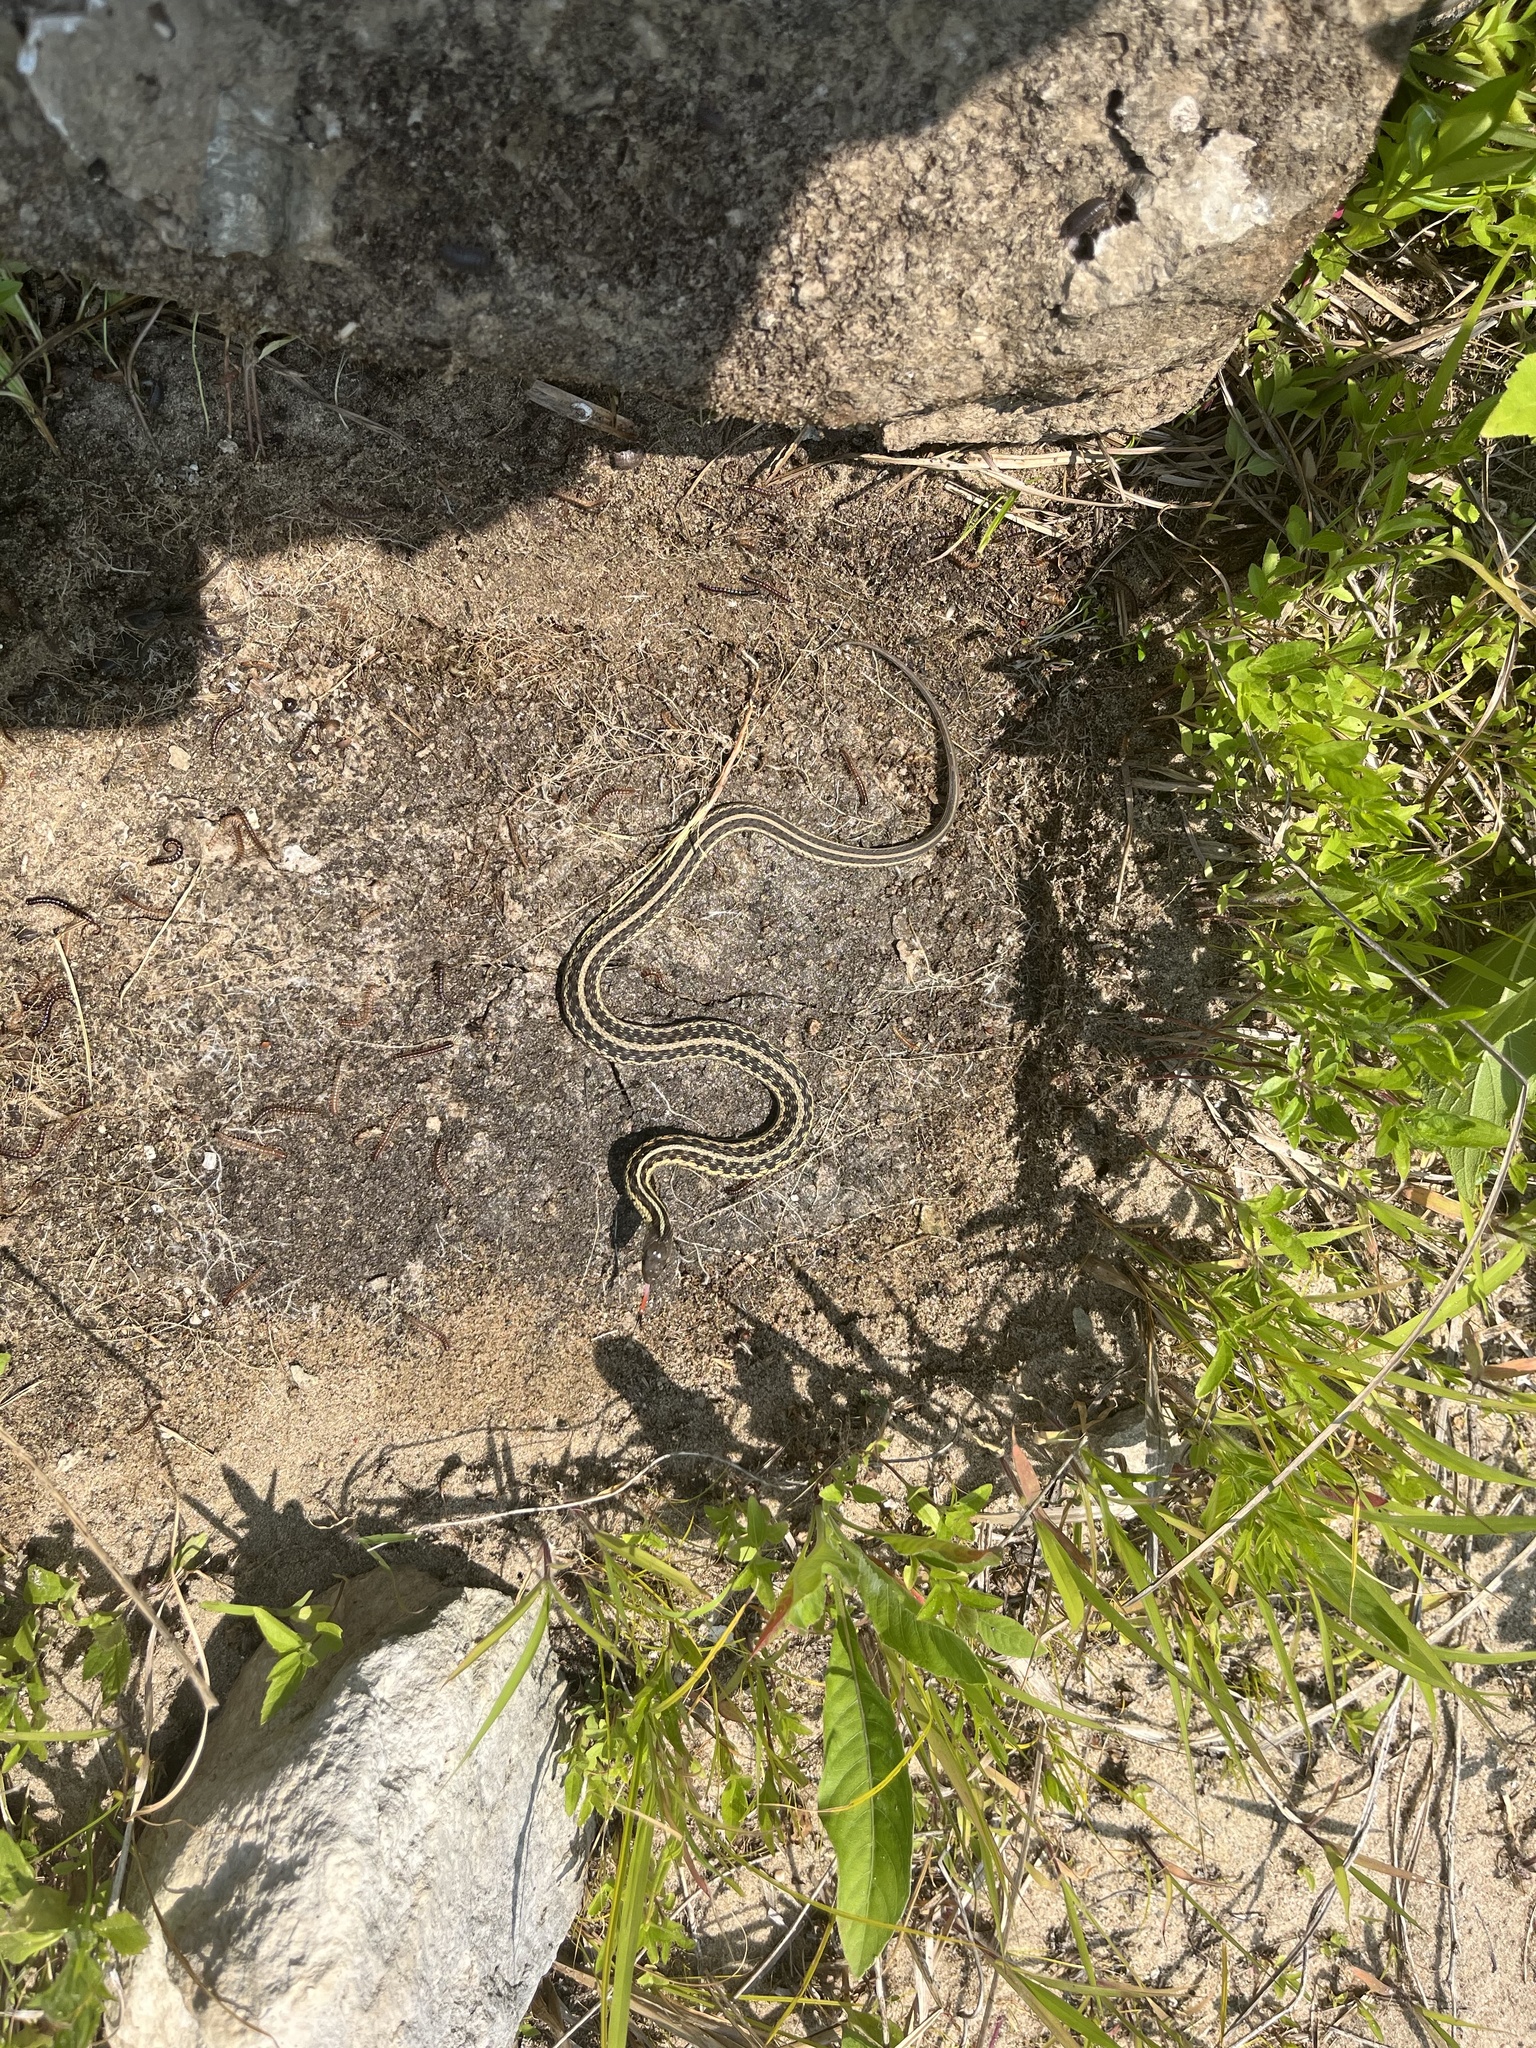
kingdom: Animalia
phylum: Chordata
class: Squamata
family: Colubridae
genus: Thamnophis
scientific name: Thamnophis sirtalis
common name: Common garter snake
